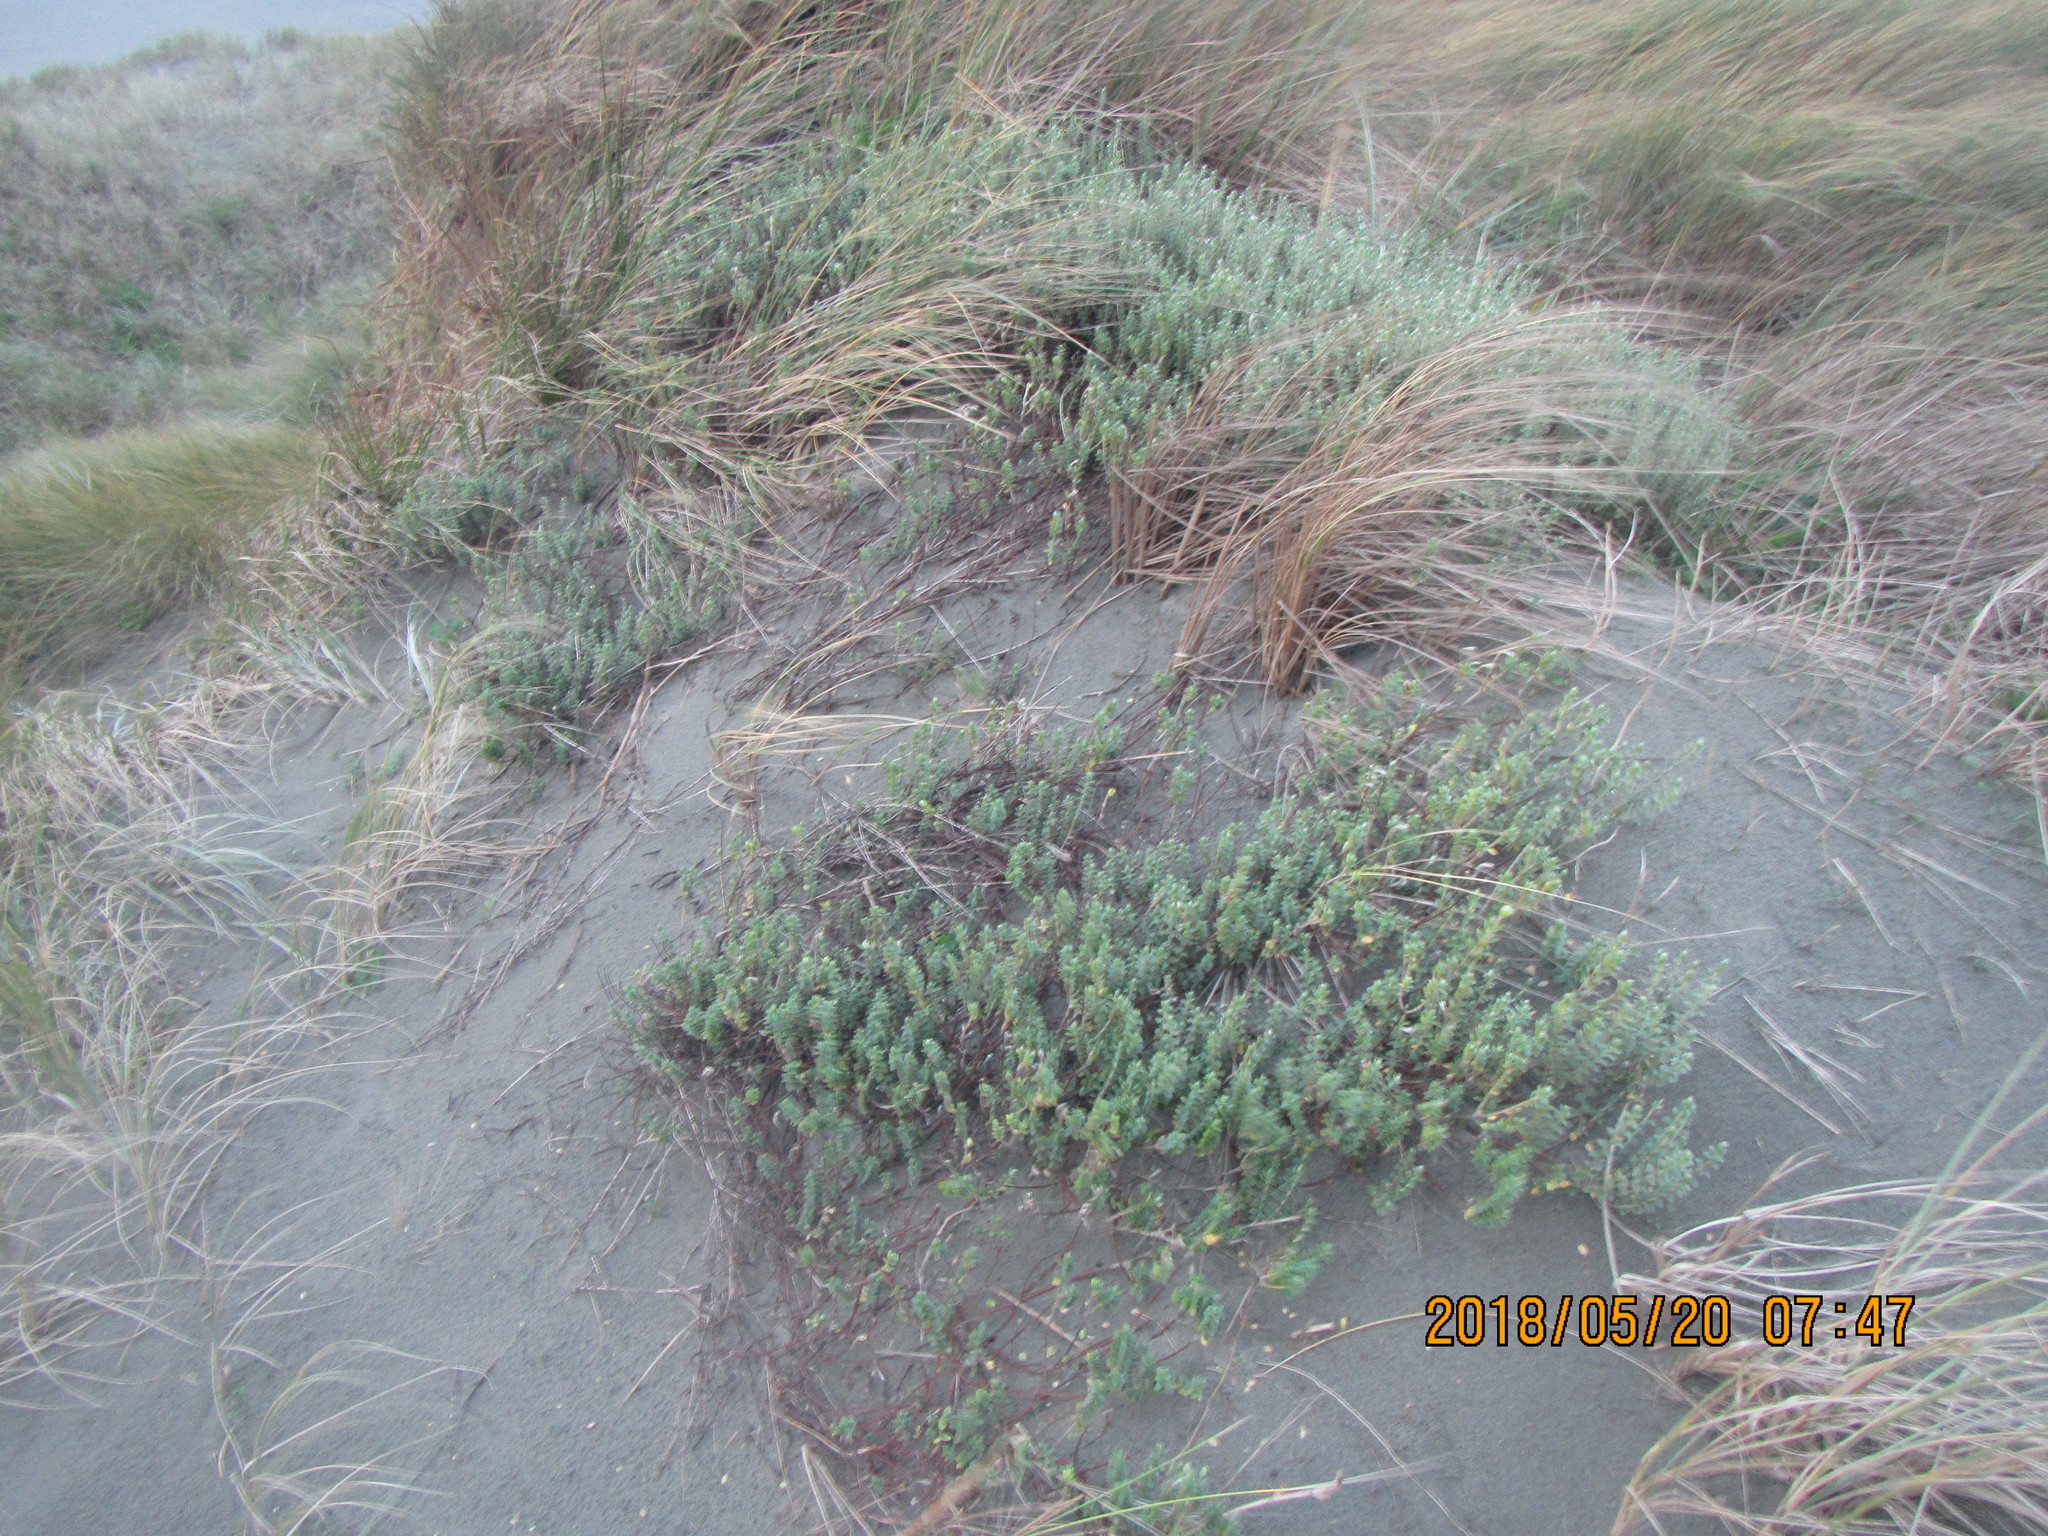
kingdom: Plantae
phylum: Tracheophyta
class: Magnoliopsida
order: Malvales
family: Thymelaeaceae
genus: Pimelea
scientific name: Pimelea villosa
